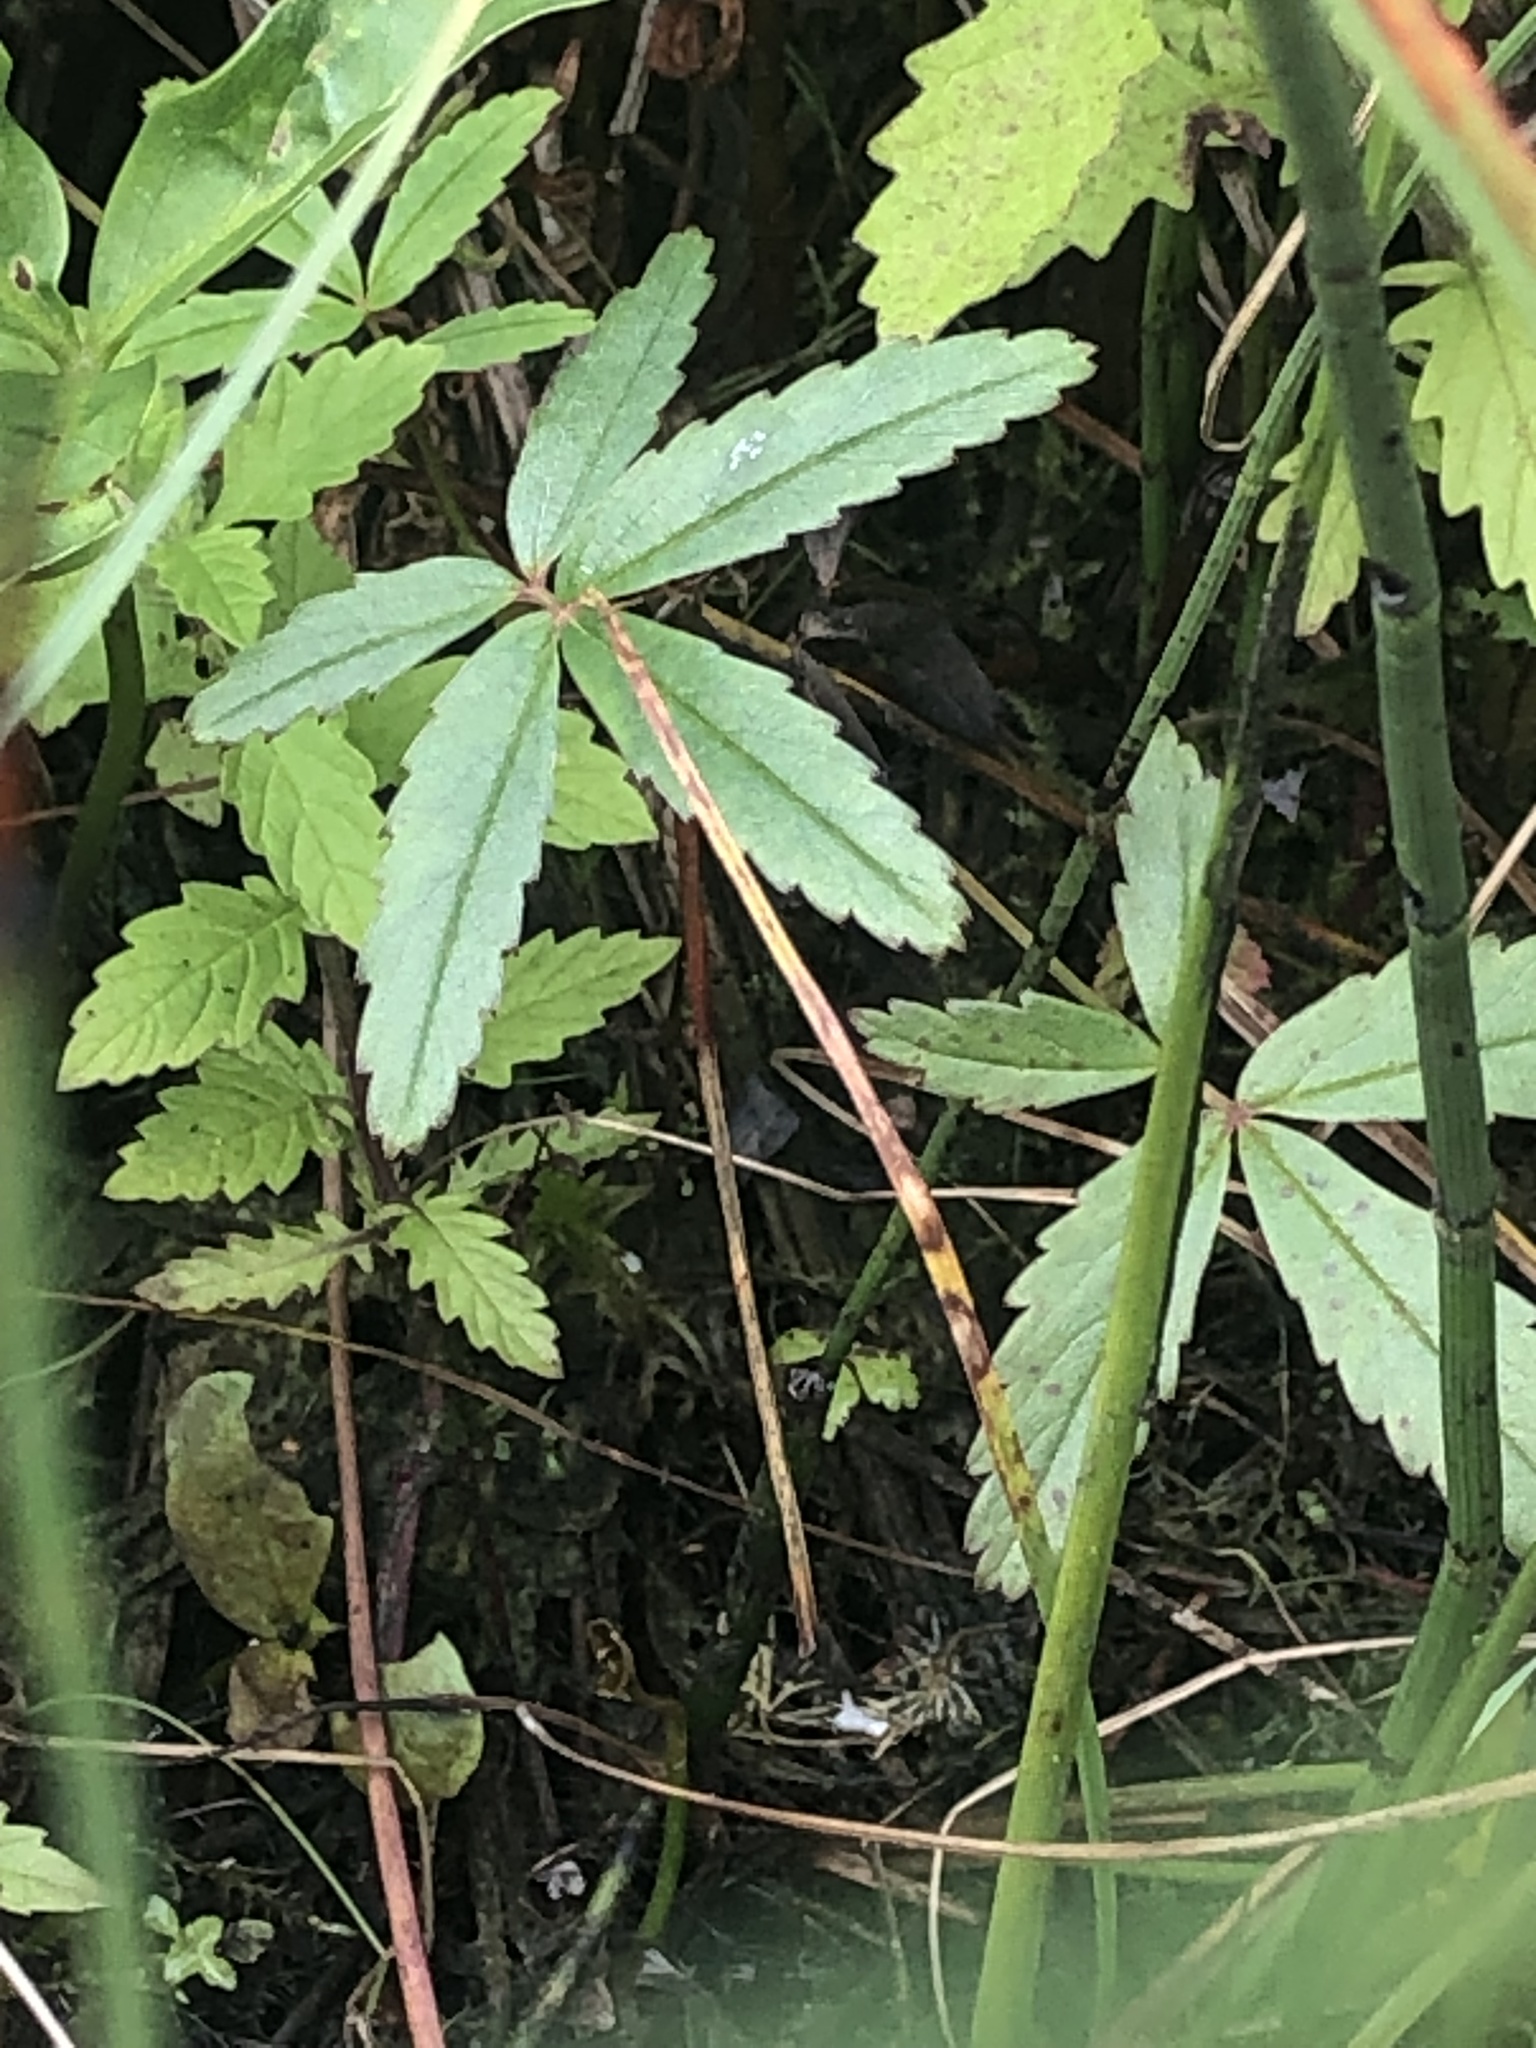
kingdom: Plantae
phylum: Tracheophyta
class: Magnoliopsida
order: Rosales
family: Rosaceae
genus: Comarum
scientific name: Comarum palustre
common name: Marsh cinquefoil
